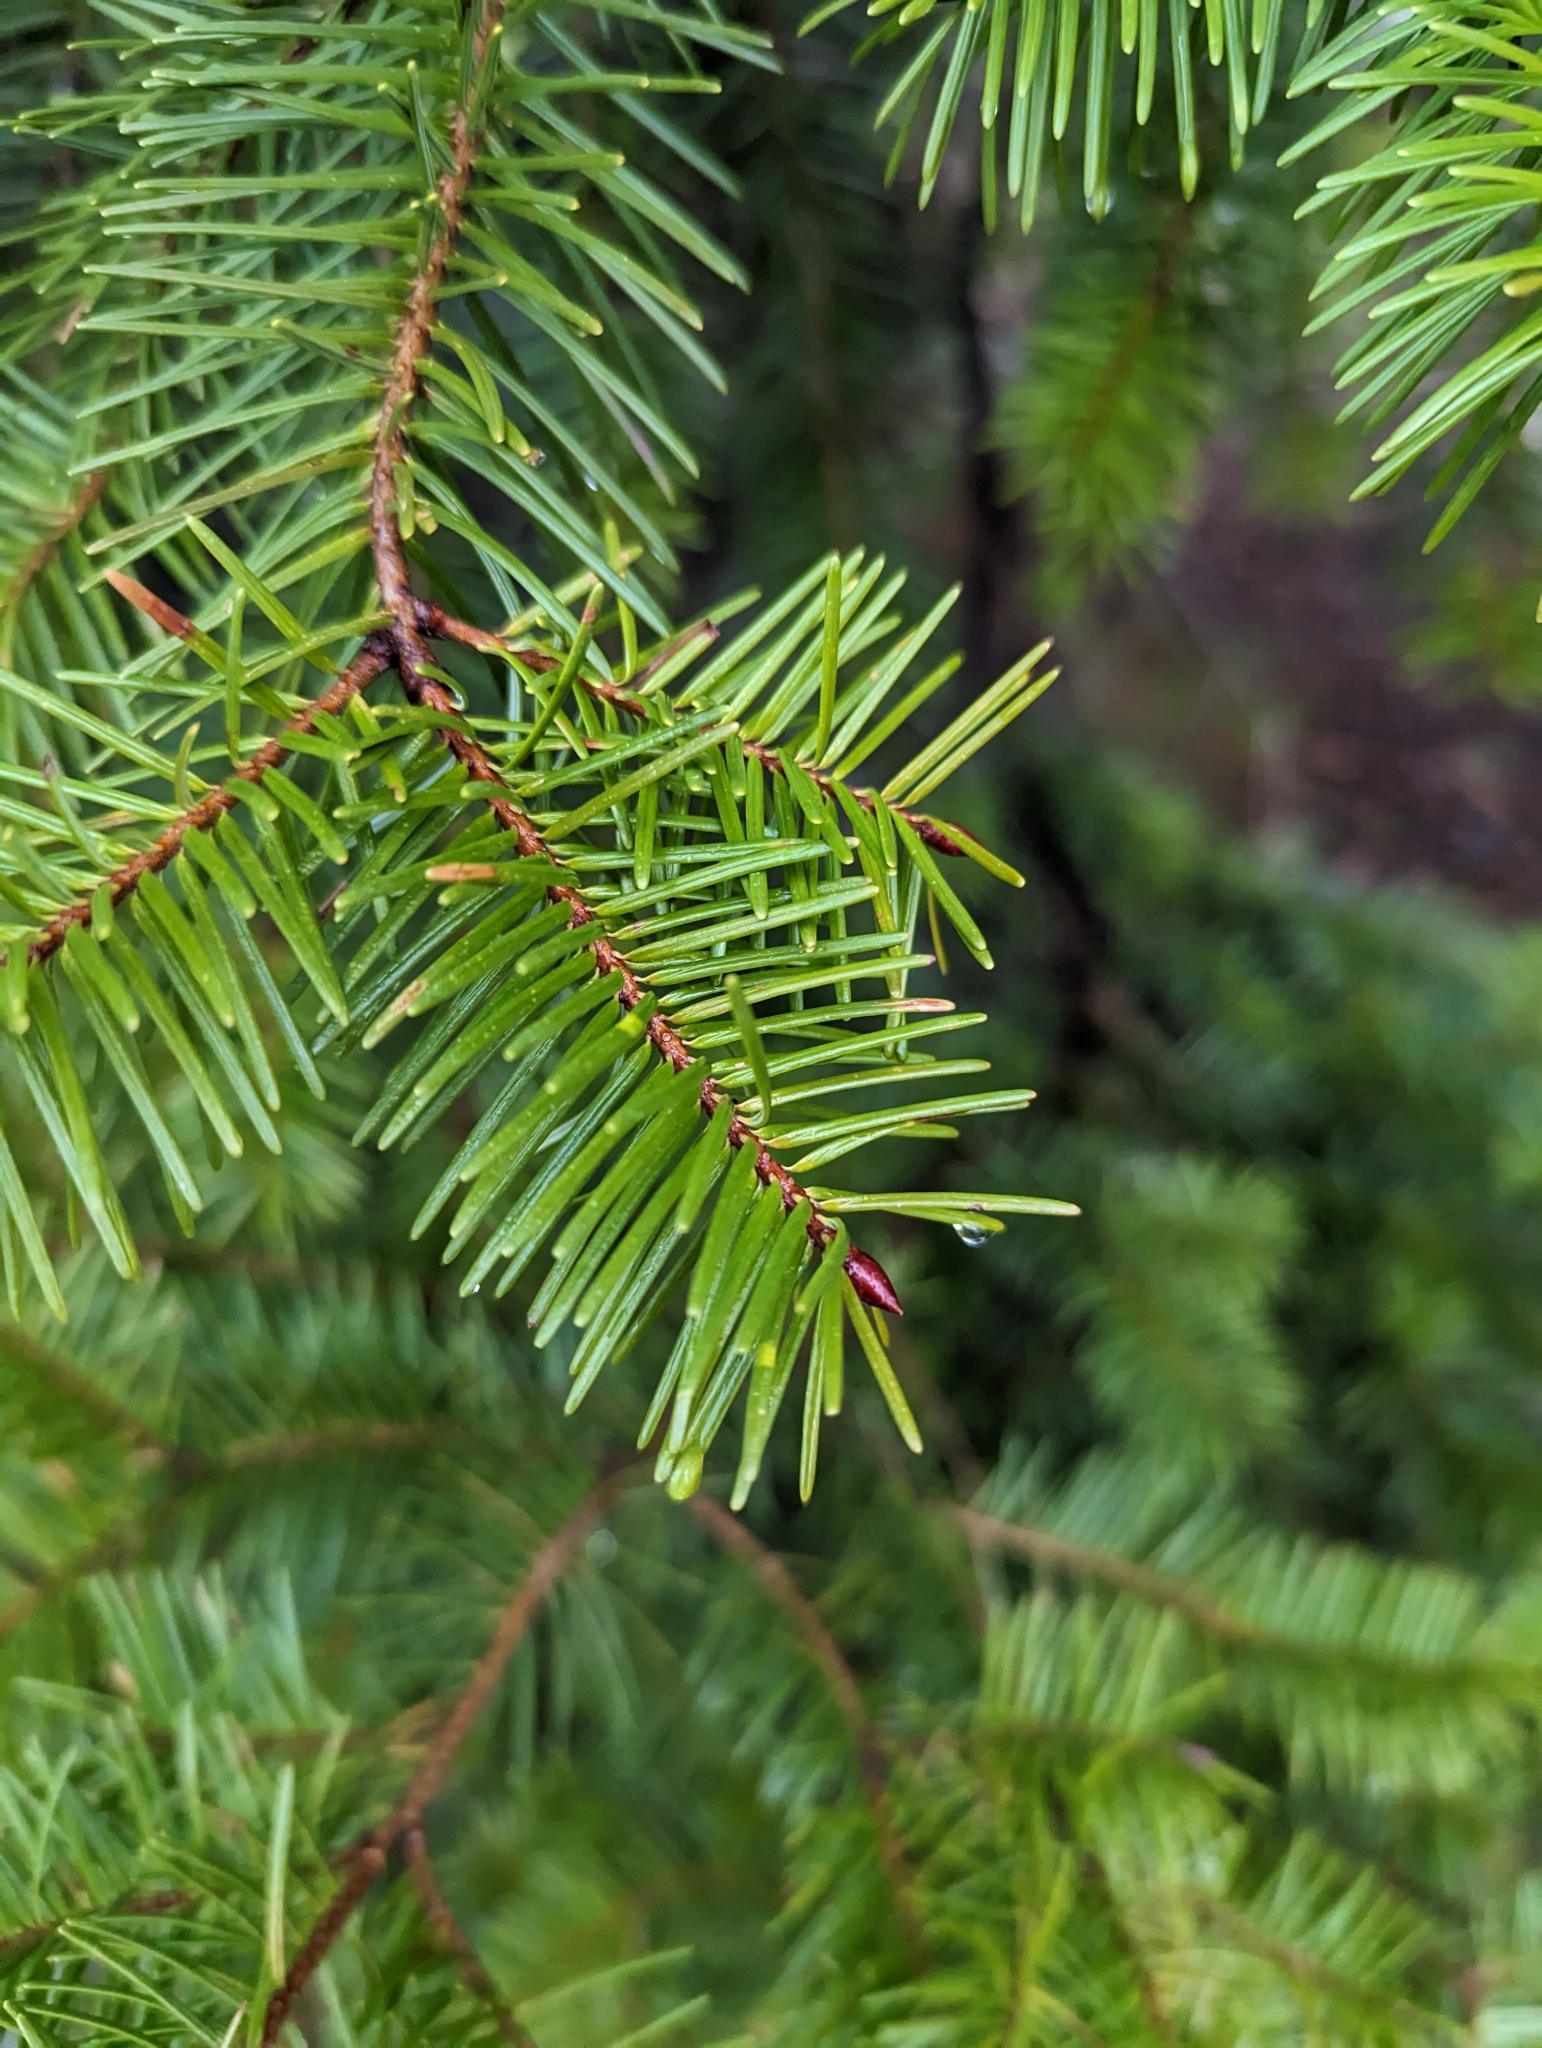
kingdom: Plantae
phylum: Tracheophyta
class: Pinopsida
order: Pinales
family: Pinaceae
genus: Pseudotsuga
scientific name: Pseudotsuga menziesii
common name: Douglas fir
